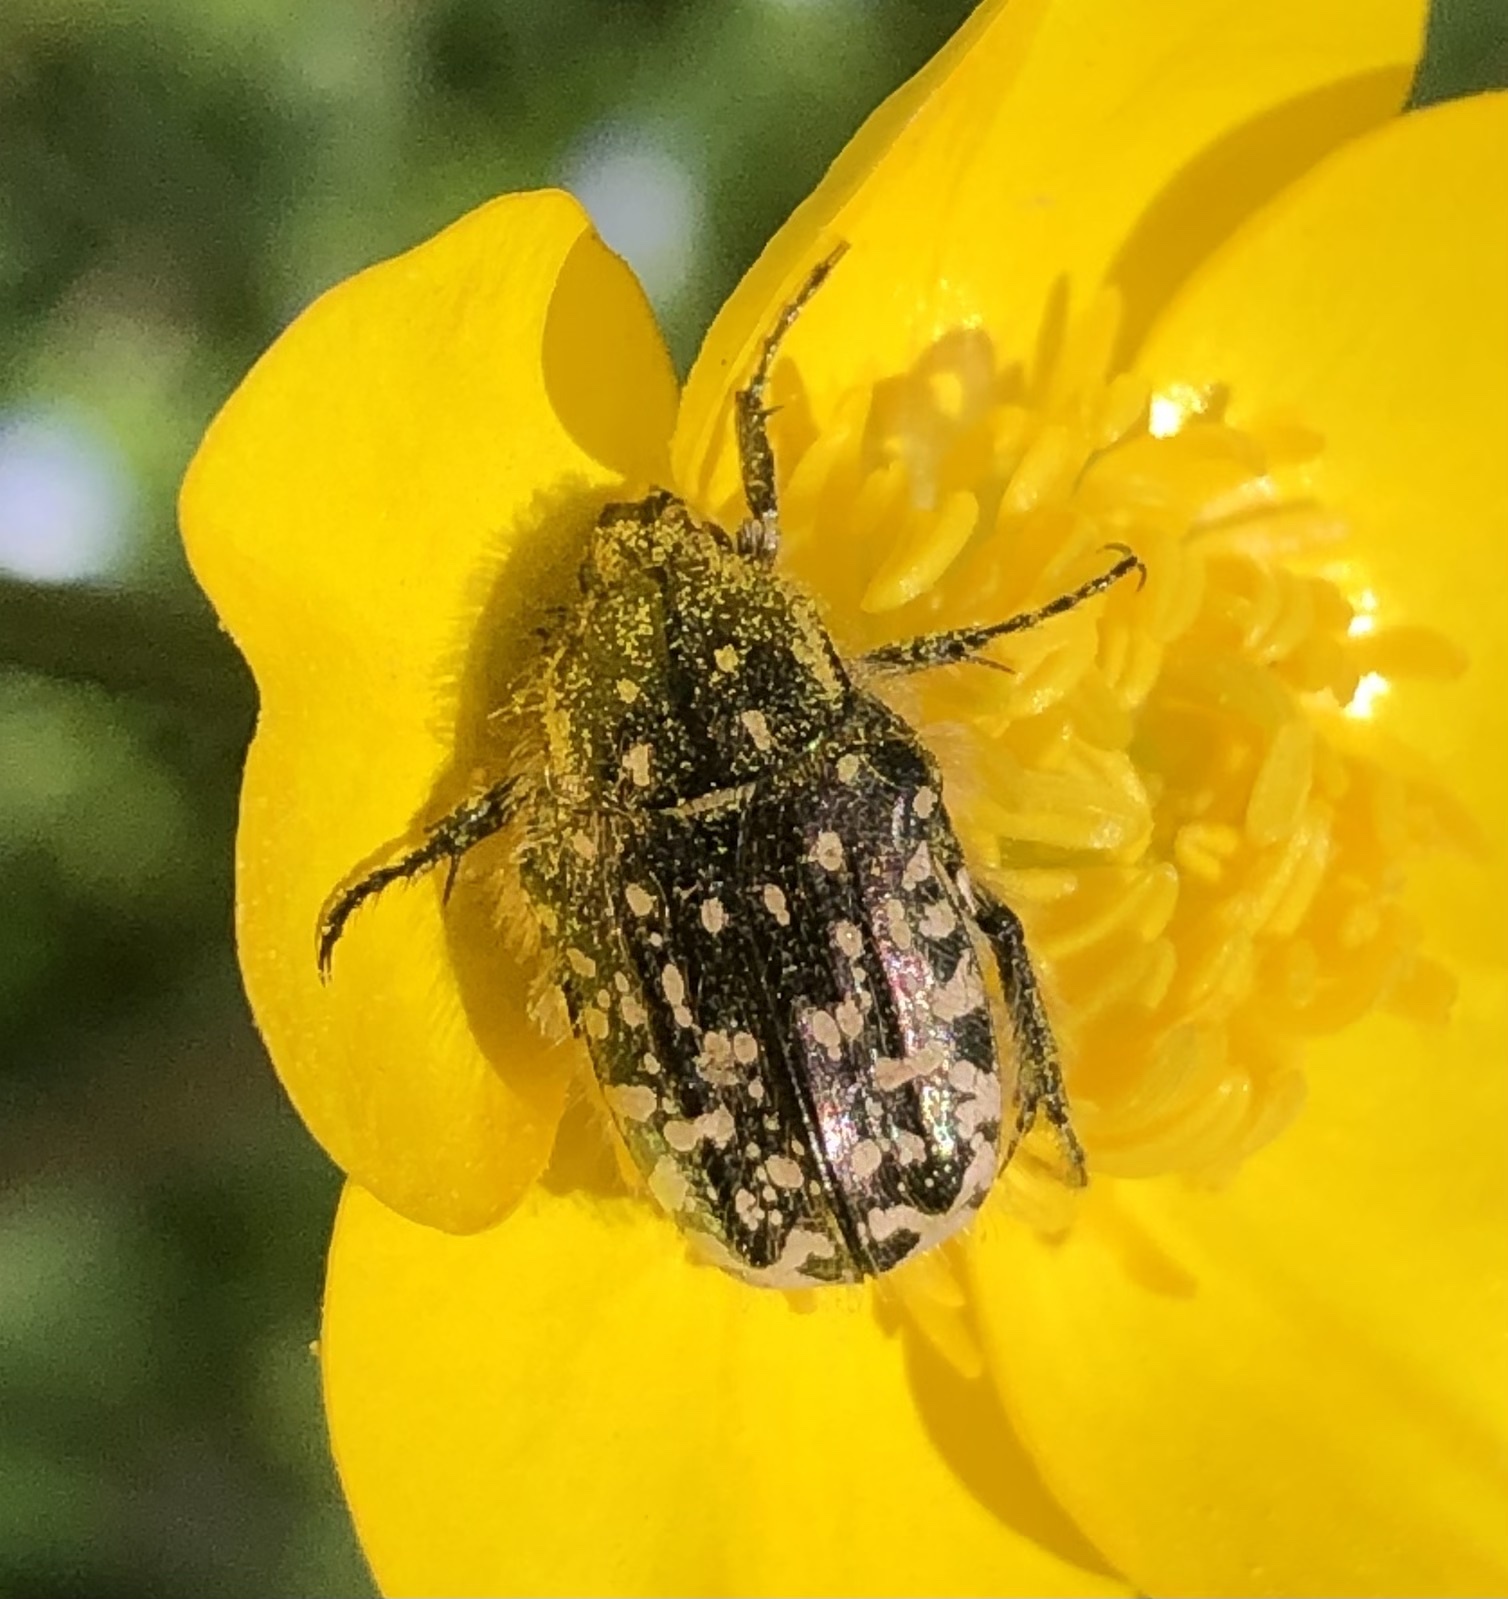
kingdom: Animalia
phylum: Arthropoda
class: Insecta
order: Coleoptera
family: Scarabaeidae
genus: Oxythyrea
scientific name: Oxythyrea funesta
